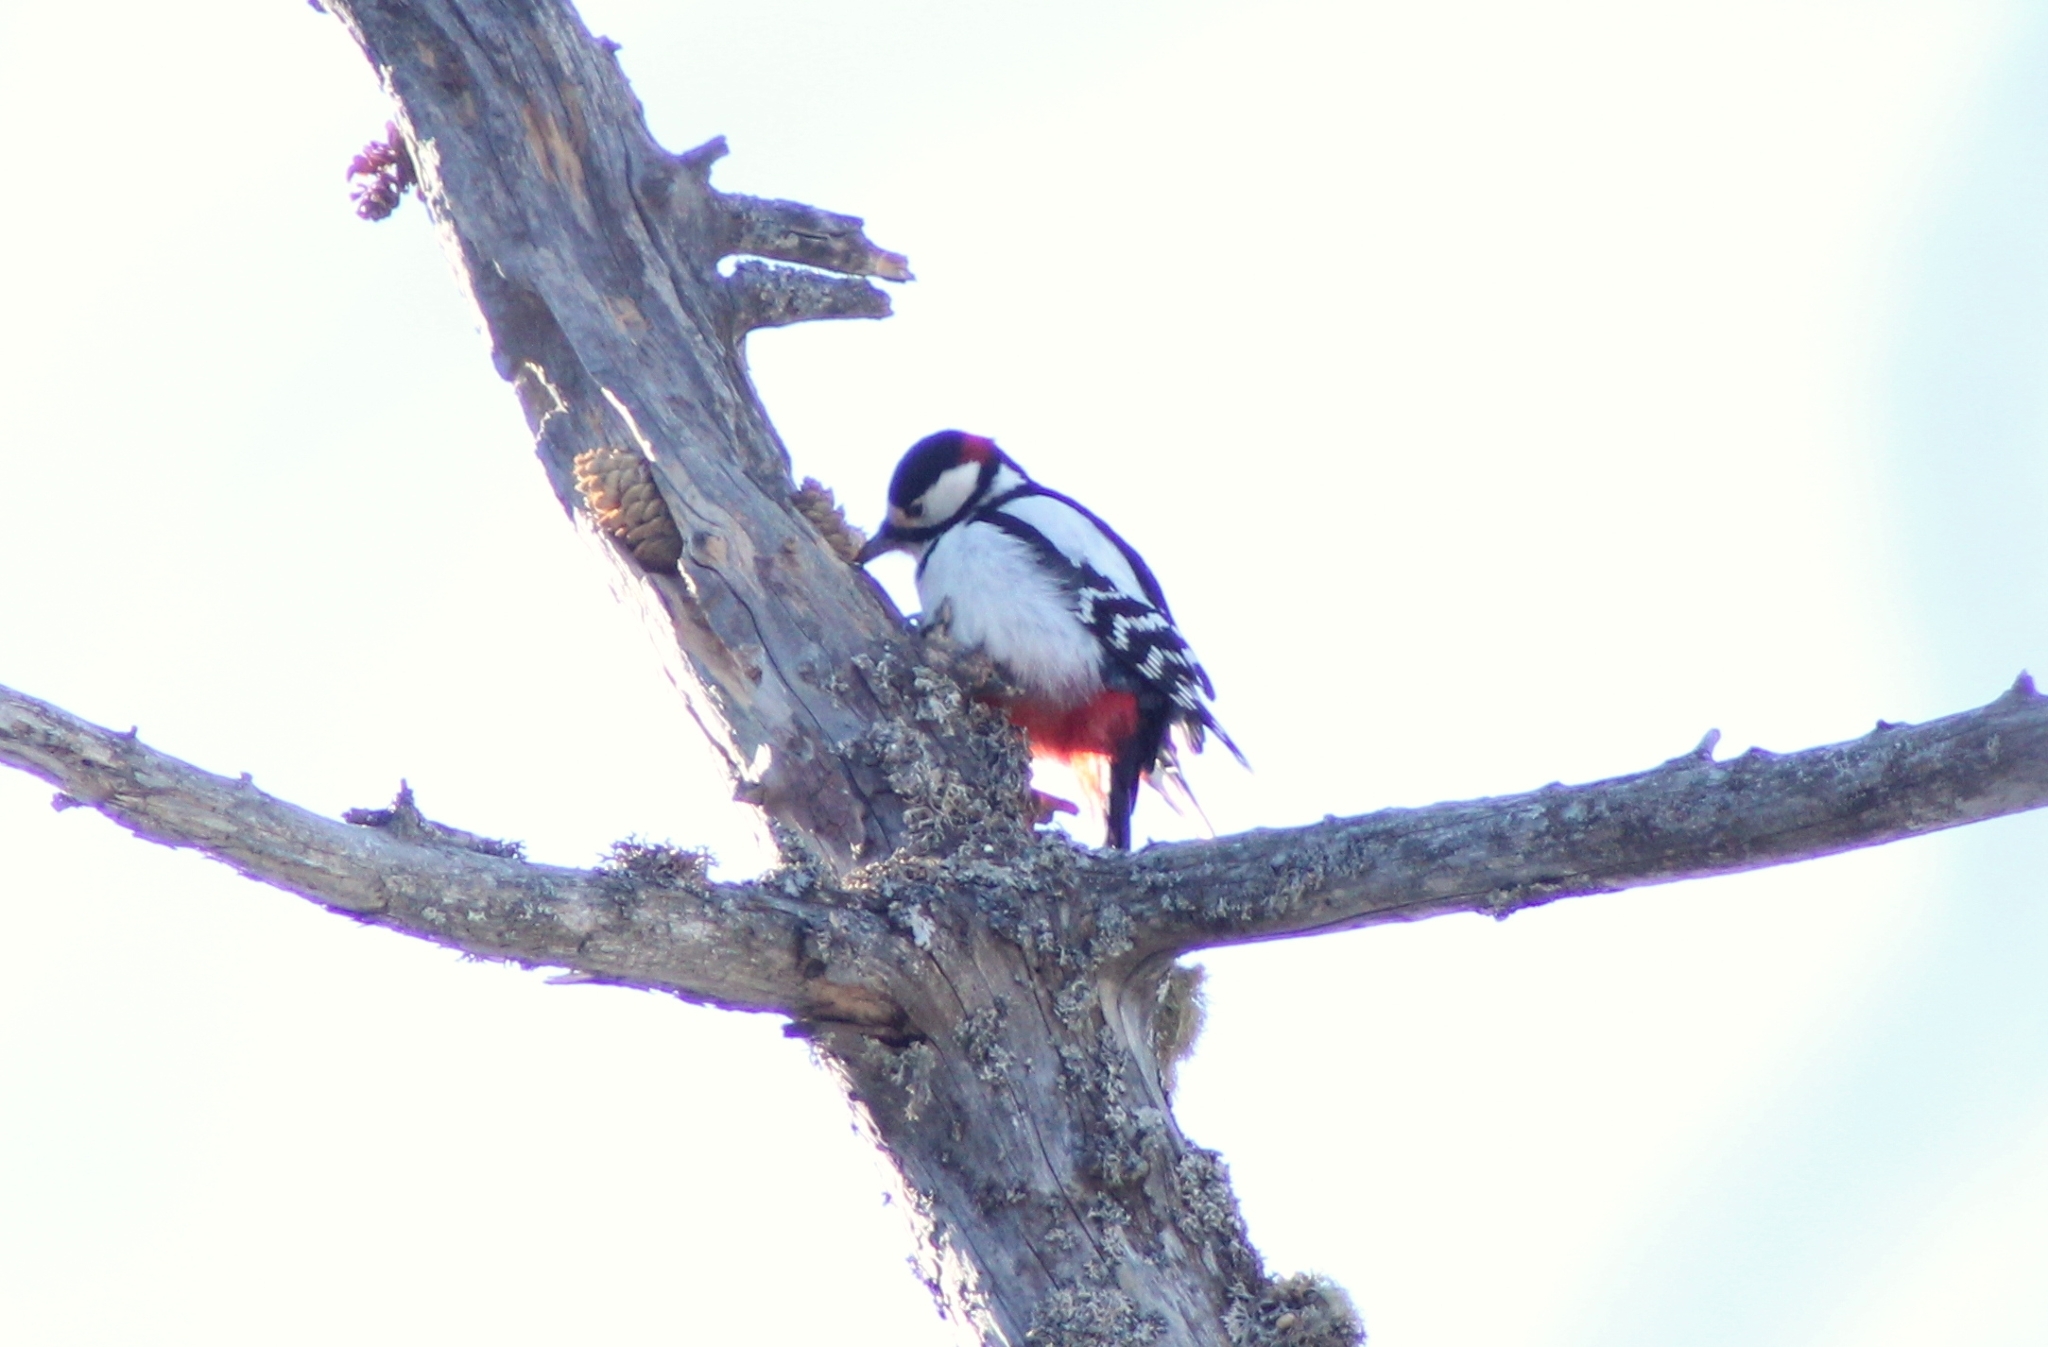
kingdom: Animalia
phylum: Chordata
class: Aves
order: Piciformes
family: Picidae
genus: Dendrocopos
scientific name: Dendrocopos major
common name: Great spotted woodpecker
